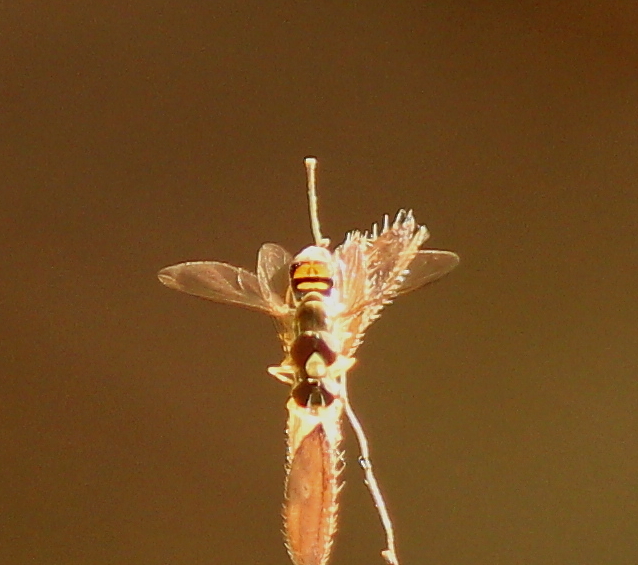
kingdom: Animalia
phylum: Arthropoda
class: Insecta
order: Diptera
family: Syrphidae
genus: Toxomerus
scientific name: Toxomerus marginatus
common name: Syrphid fly
